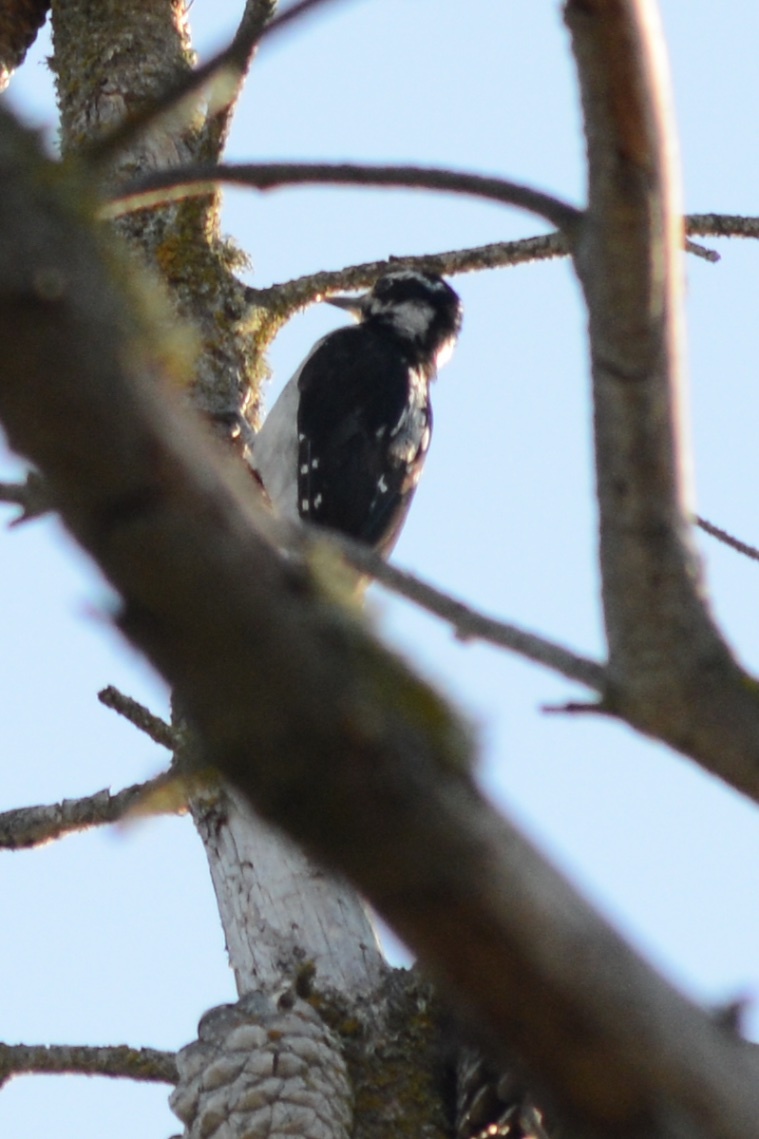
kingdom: Animalia
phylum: Chordata
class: Aves
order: Piciformes
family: Picidae
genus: Leuconotopicus
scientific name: Leuconotopicus villosus
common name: Hairy woodpecker
